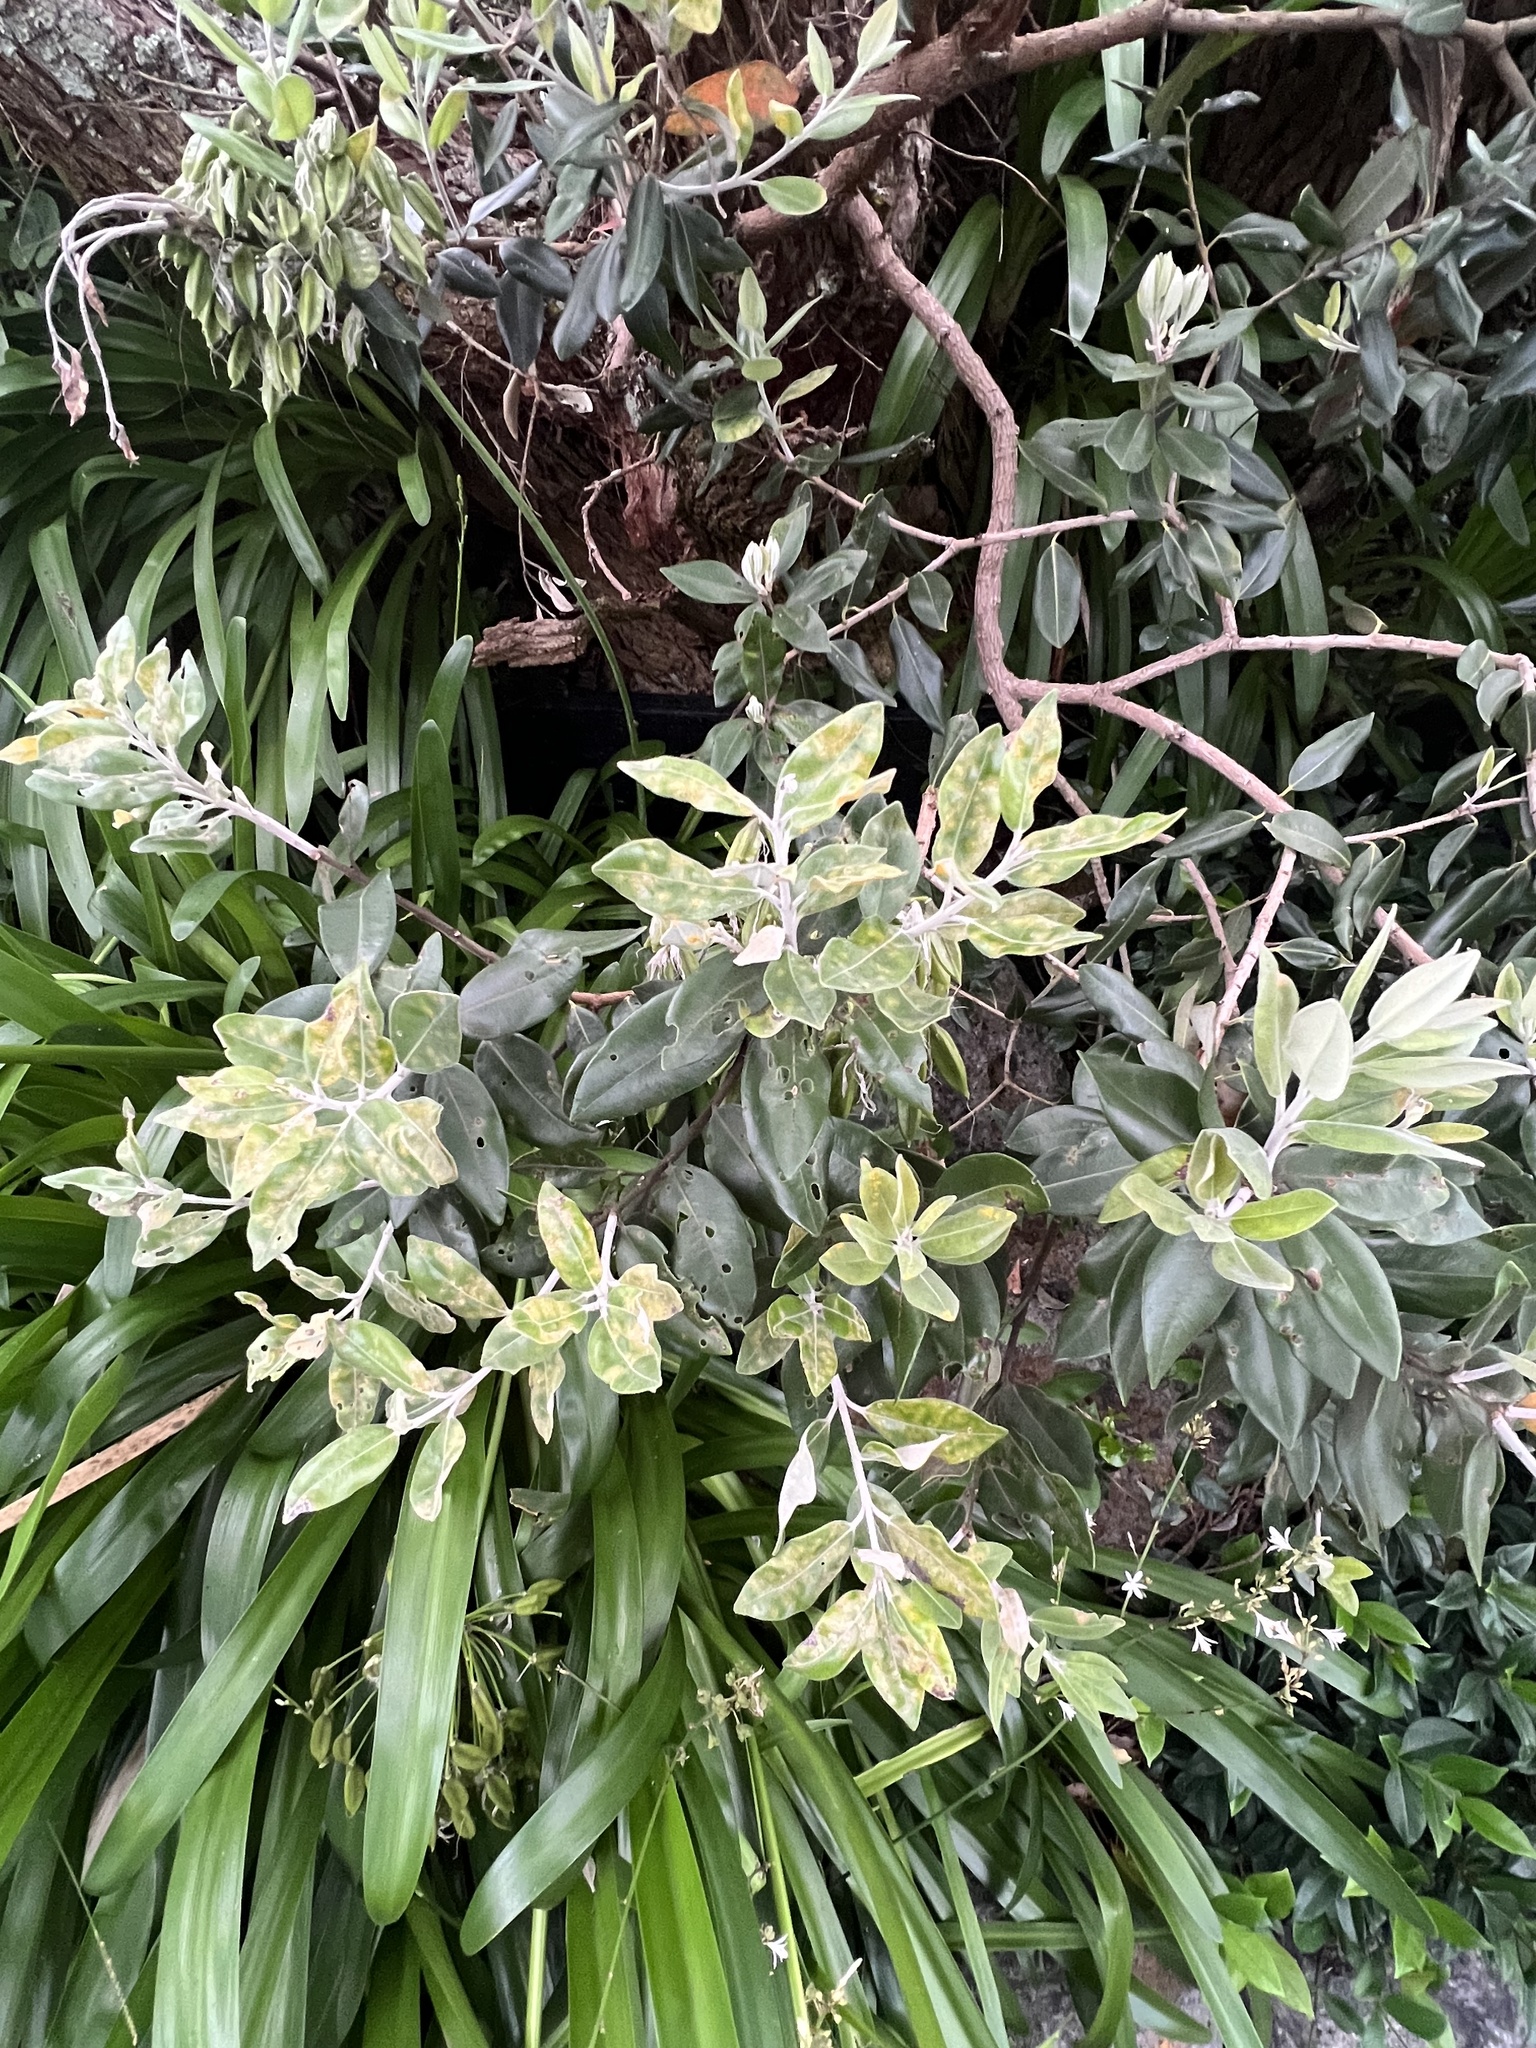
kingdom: Fungi
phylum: Basidiomycota
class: Pucciniomycetes
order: Pucciniales
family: Sphaerophragmiaceae
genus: Austropuccinia
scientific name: Austropuccinia psidii
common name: Myrtle rust
